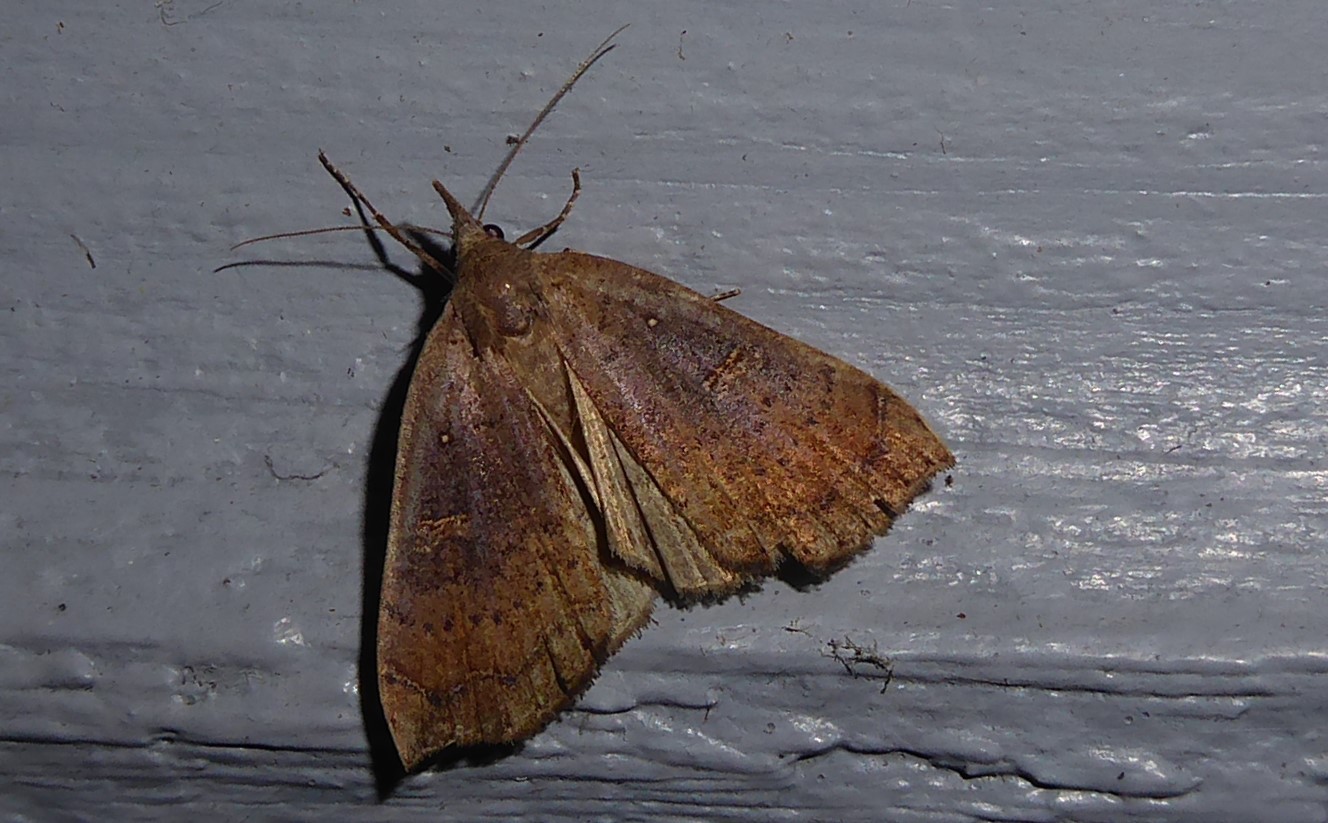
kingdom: Animalia
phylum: Arthropoda
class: Insecta
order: Lepidoptera
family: Erebidae
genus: Rhapsa
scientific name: Rhapsa scotosialis
